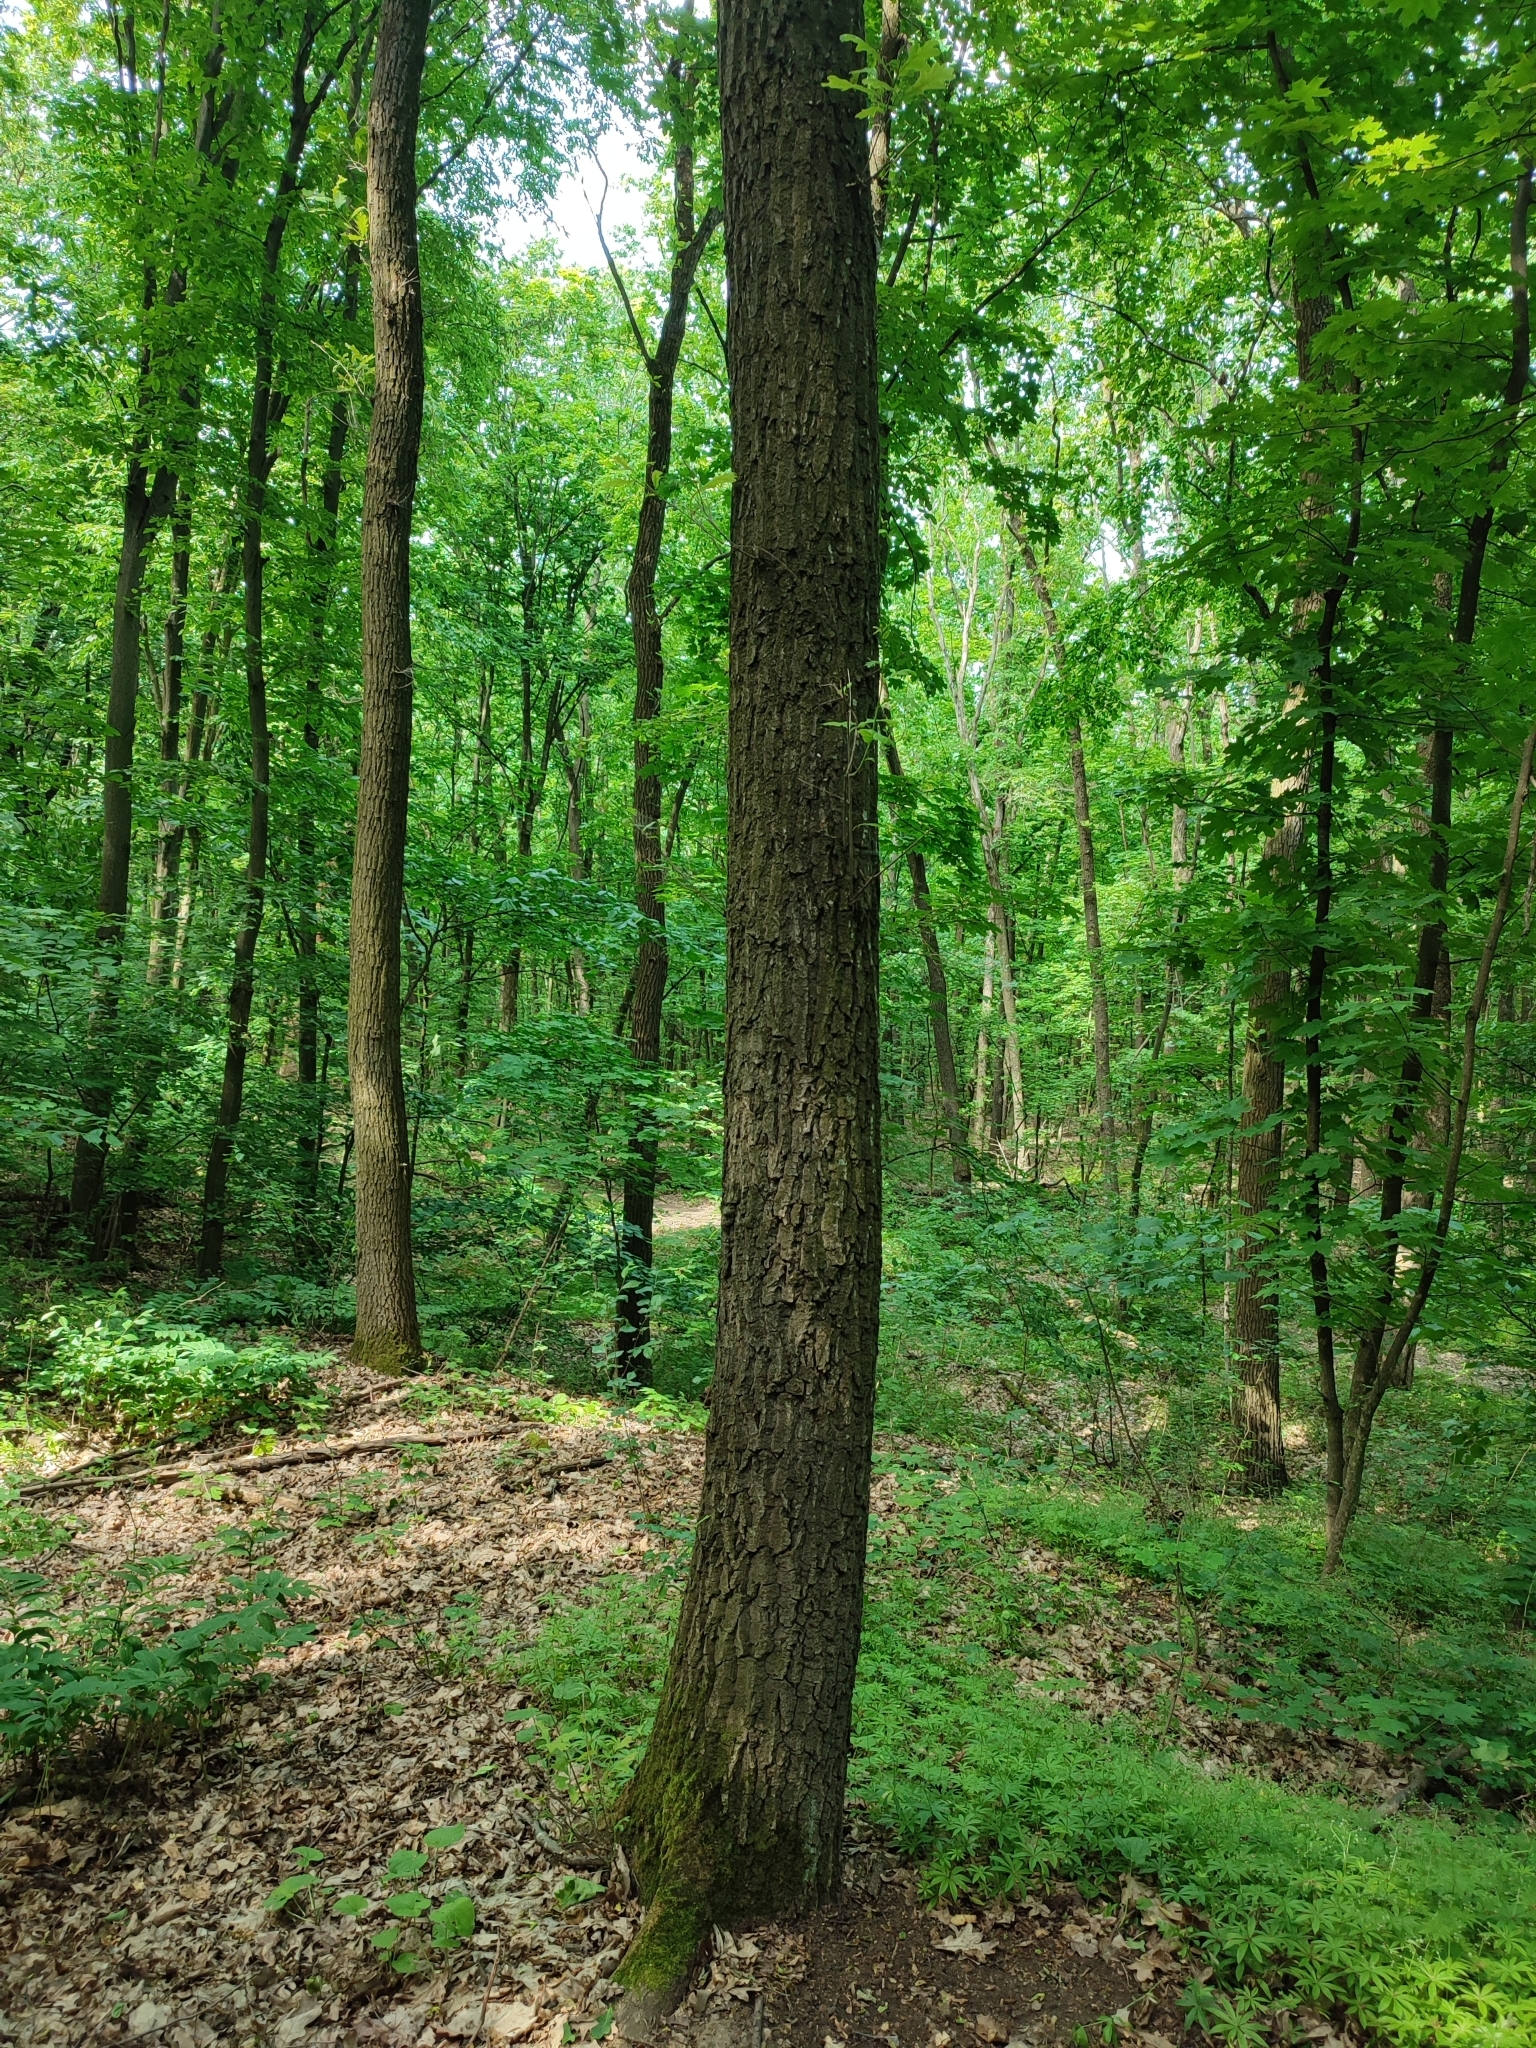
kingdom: Plantae
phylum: Tracheophyta
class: Magnoliopsida
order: Fagales
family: Fagaceae
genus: Quercus
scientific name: Quercus robur
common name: Pedunculate oak
